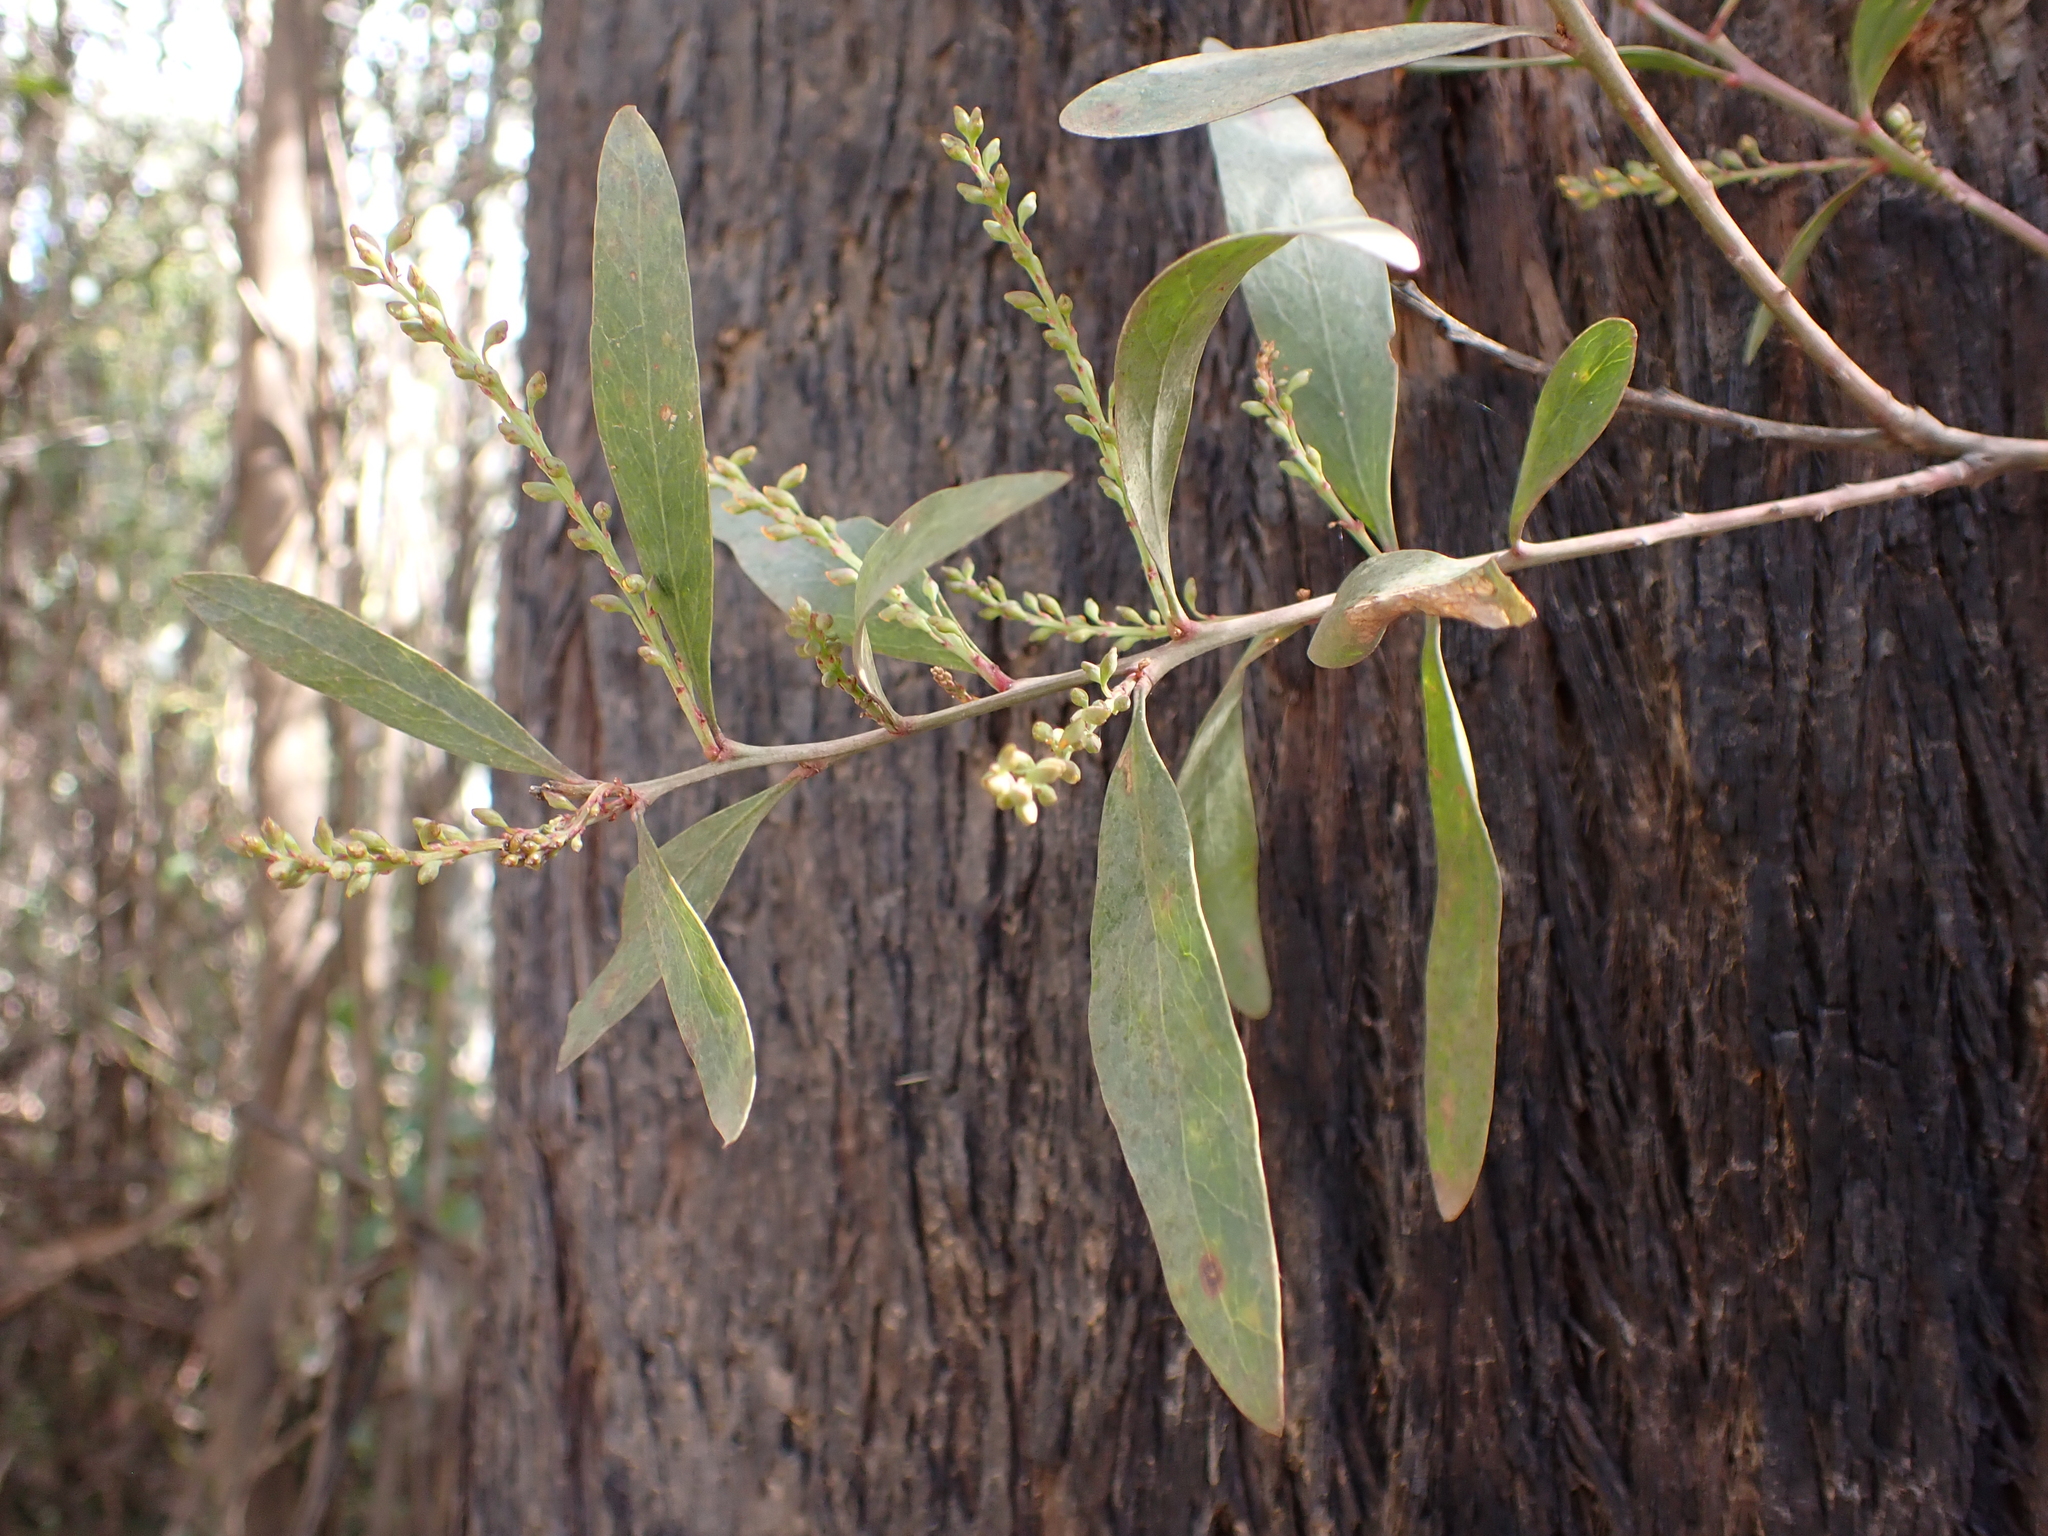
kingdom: Plantae
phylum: Tracheophyta
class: Magnoliopsida
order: Fabales
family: Fabaceae
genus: Daviesia
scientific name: Daviesia laxiflora
